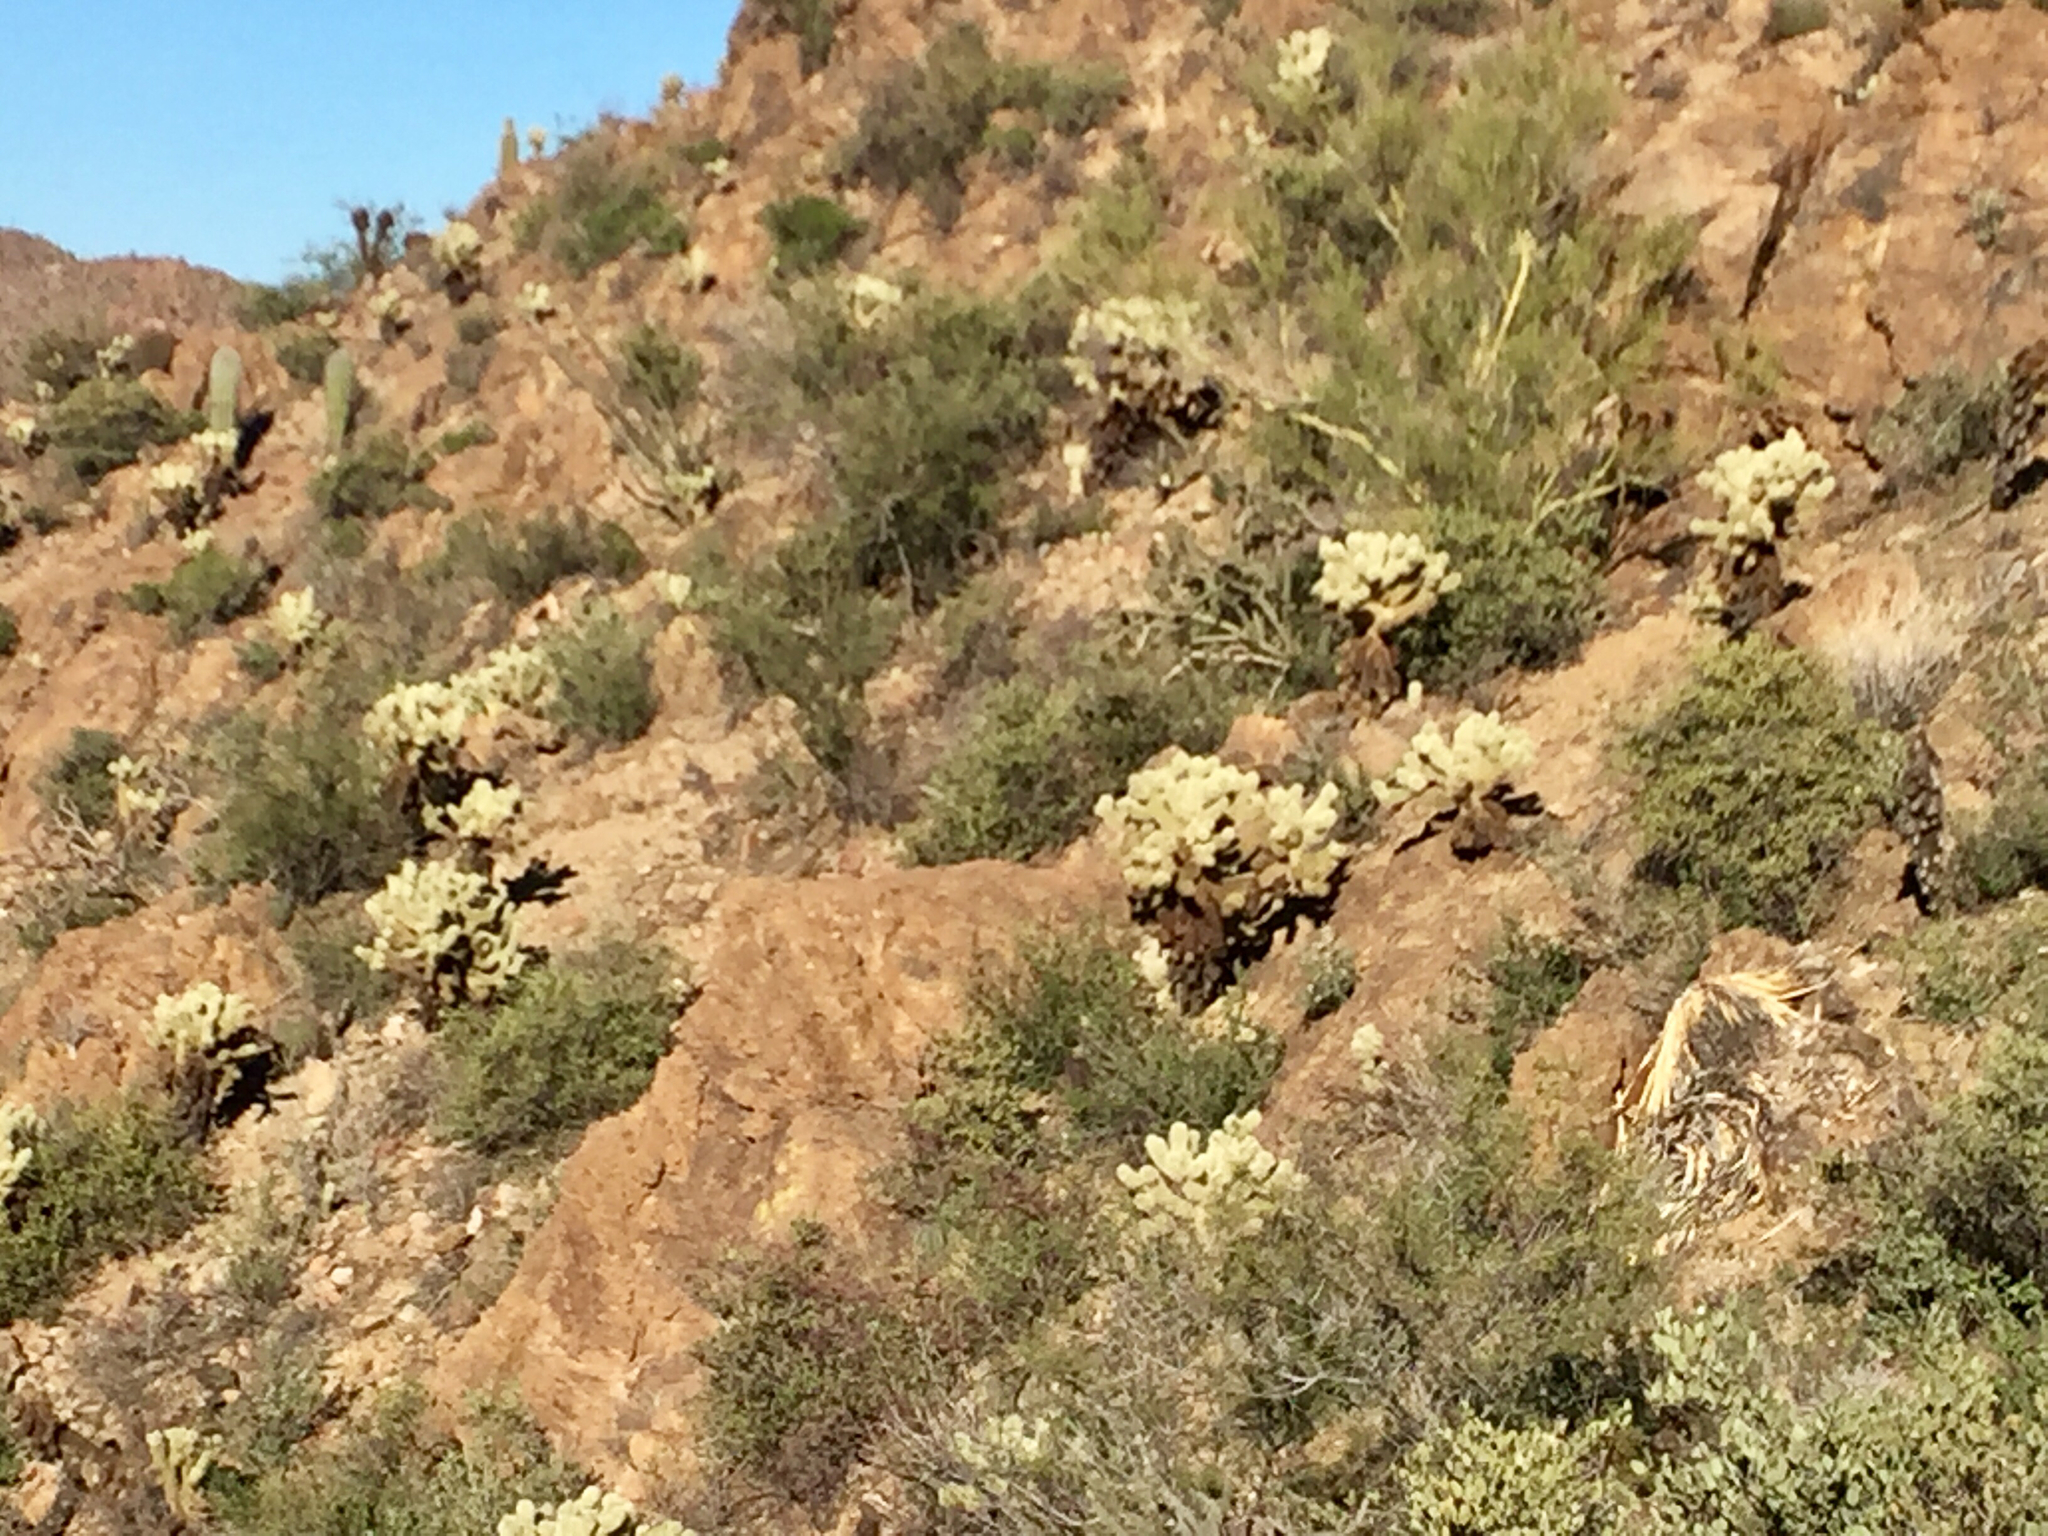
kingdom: Plantae
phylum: Tracheophyta
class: Magnoliopsida
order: Caryophyllales
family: Cactaceae
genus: Cylindropuntia
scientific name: Cylindropuntia fosbergii
